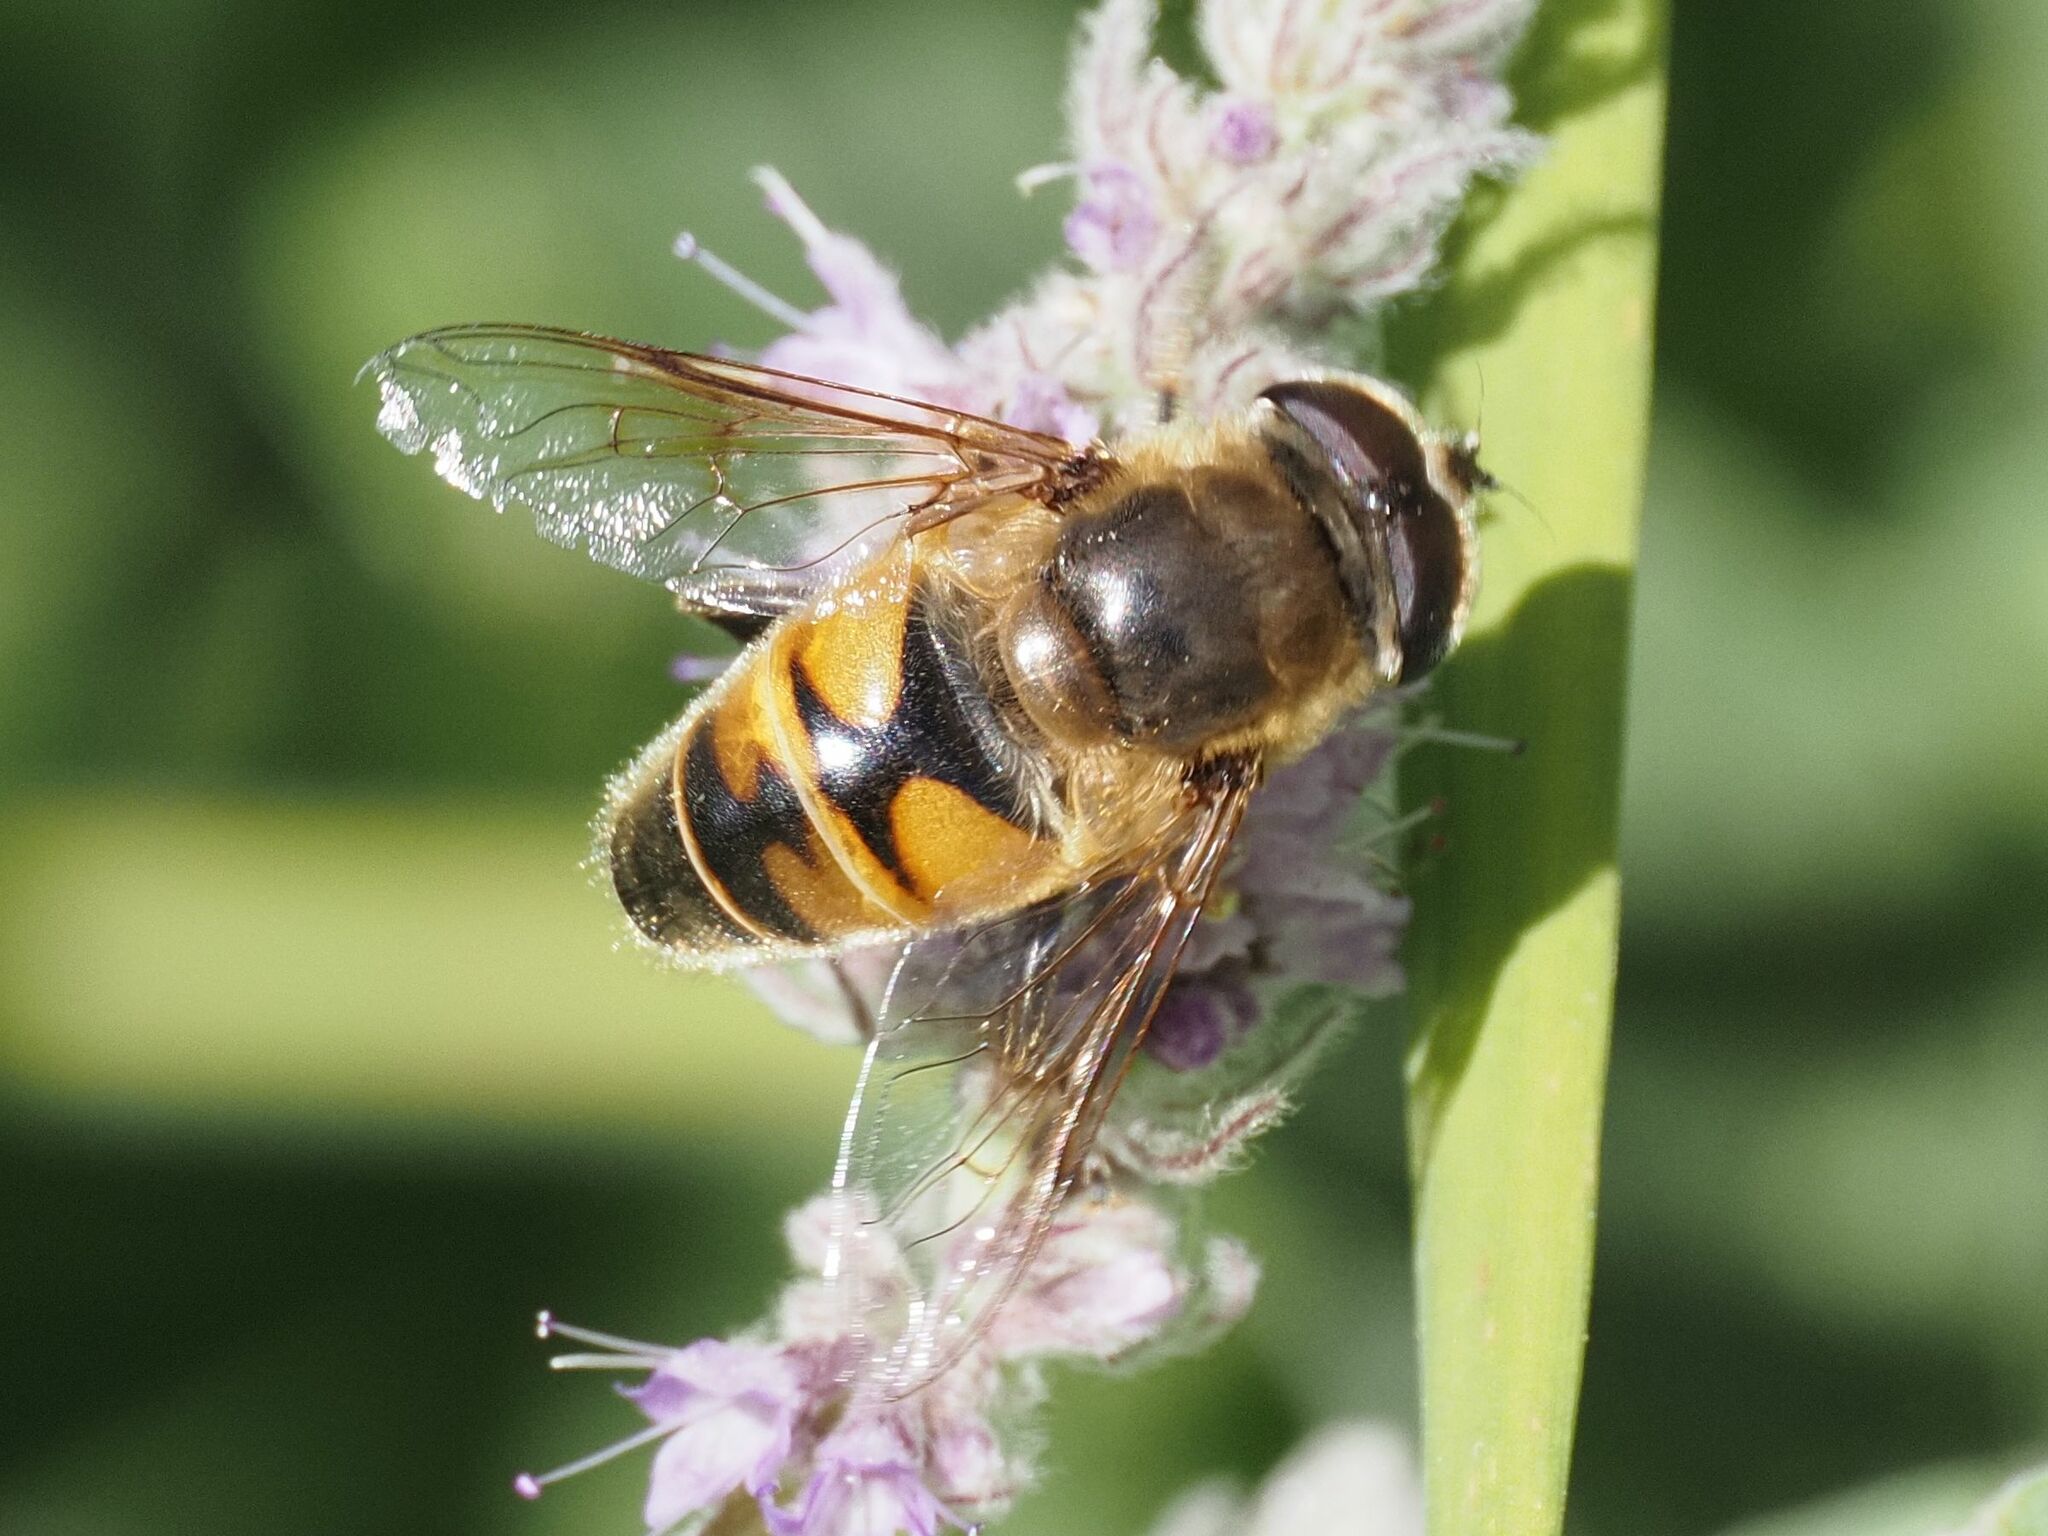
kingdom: Animalia
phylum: Arthropoda
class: Insecta
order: Diptera
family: Syrphidae
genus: Eristalis
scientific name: Eristalis tenax
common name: Drone fly
